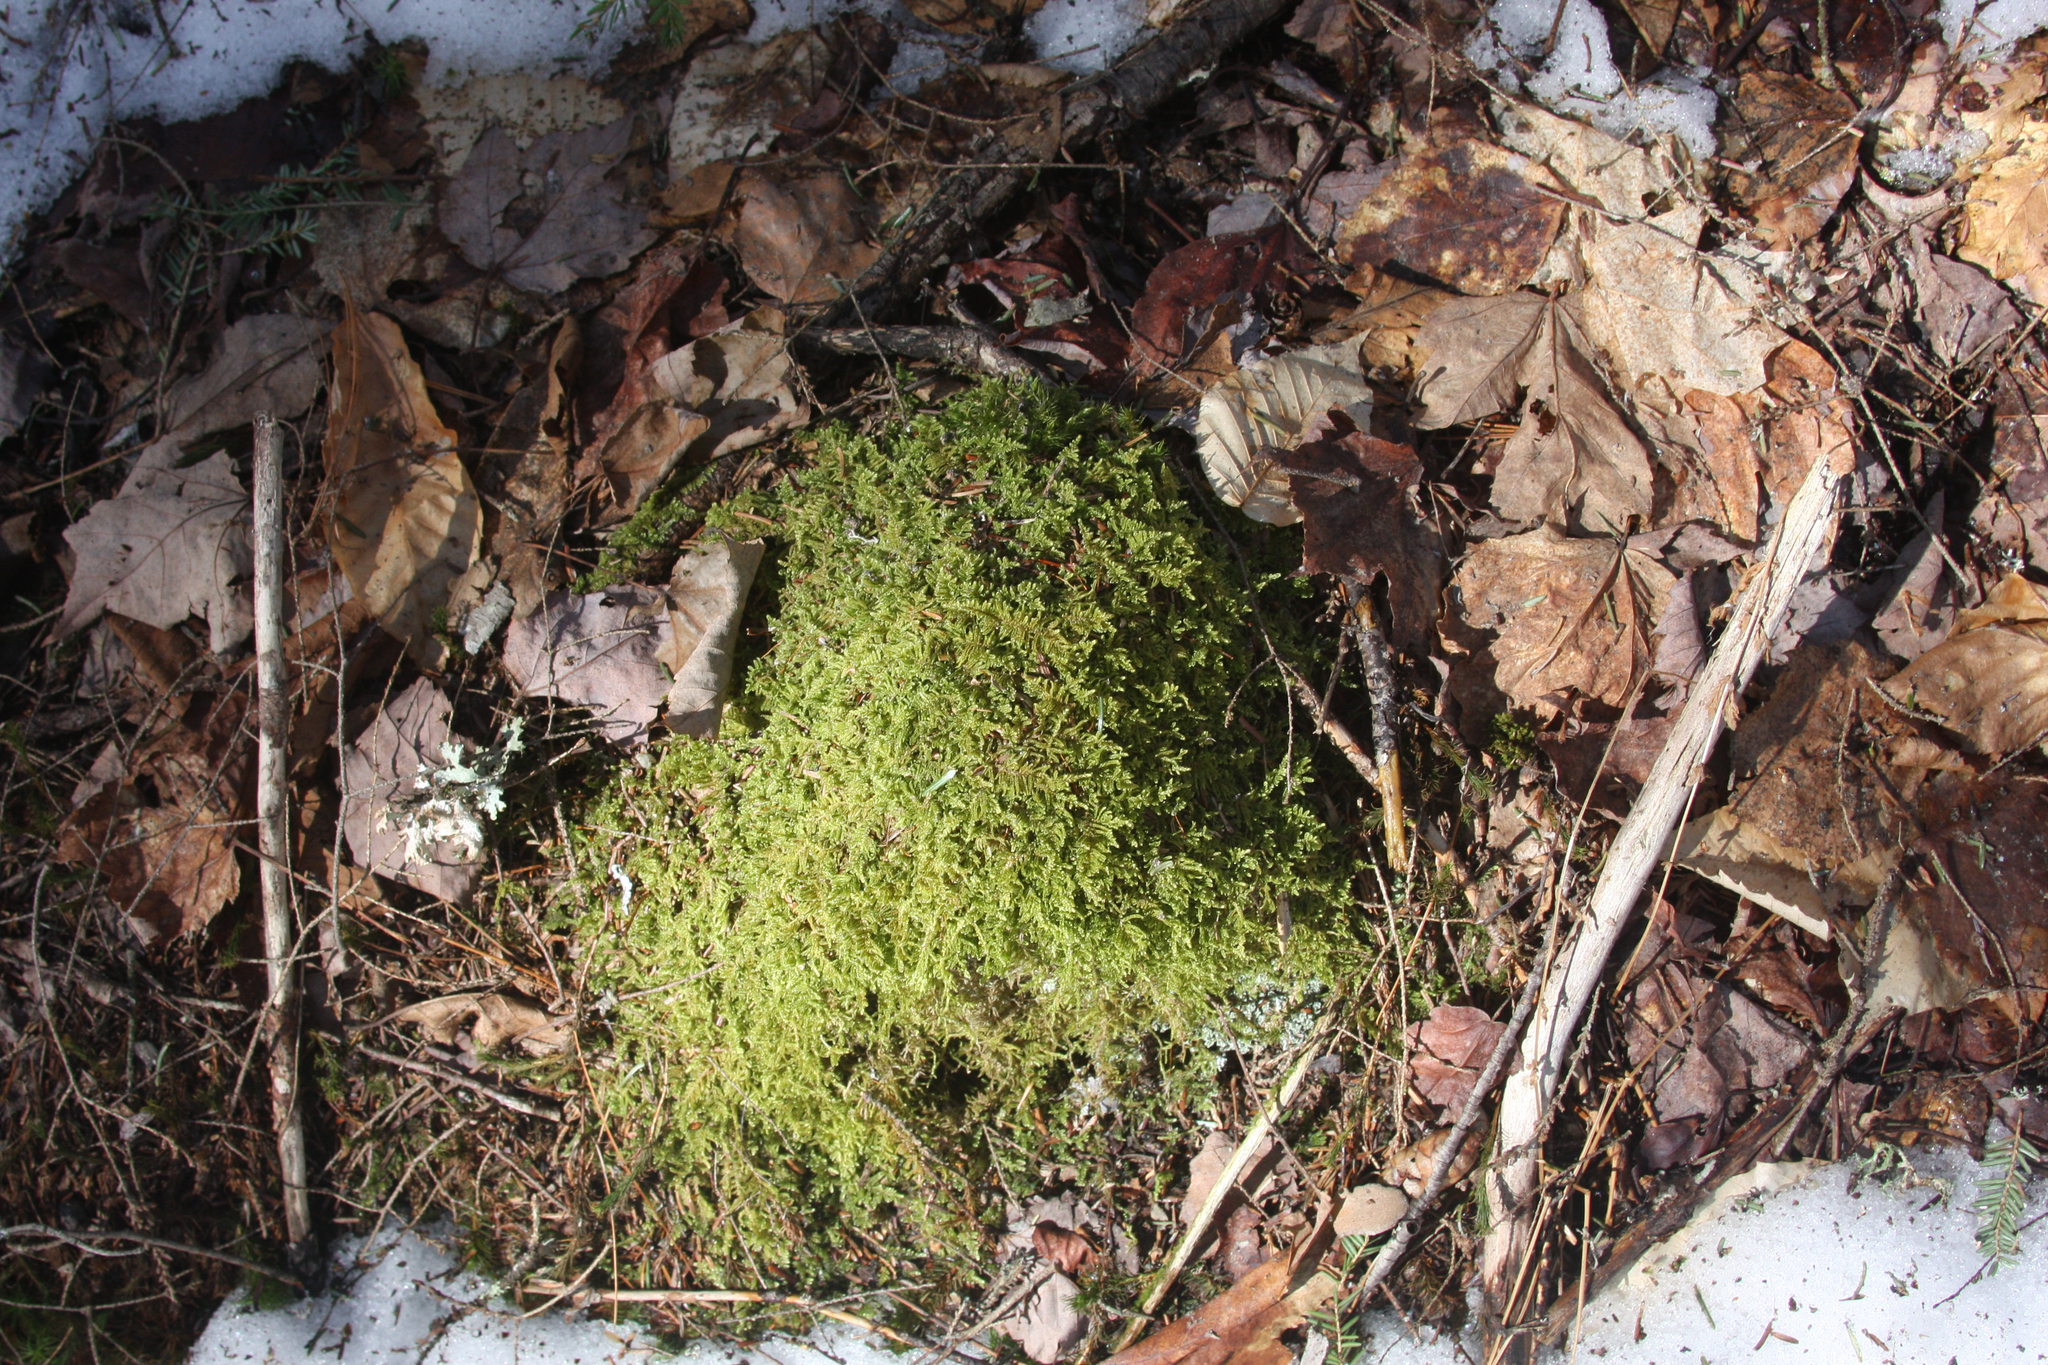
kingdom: Plantae
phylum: Bryophyta
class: Bryopsida
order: Hypnales
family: Callicladiaceae
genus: Callicladium
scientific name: Callicladium imponens
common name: Brocade moss
